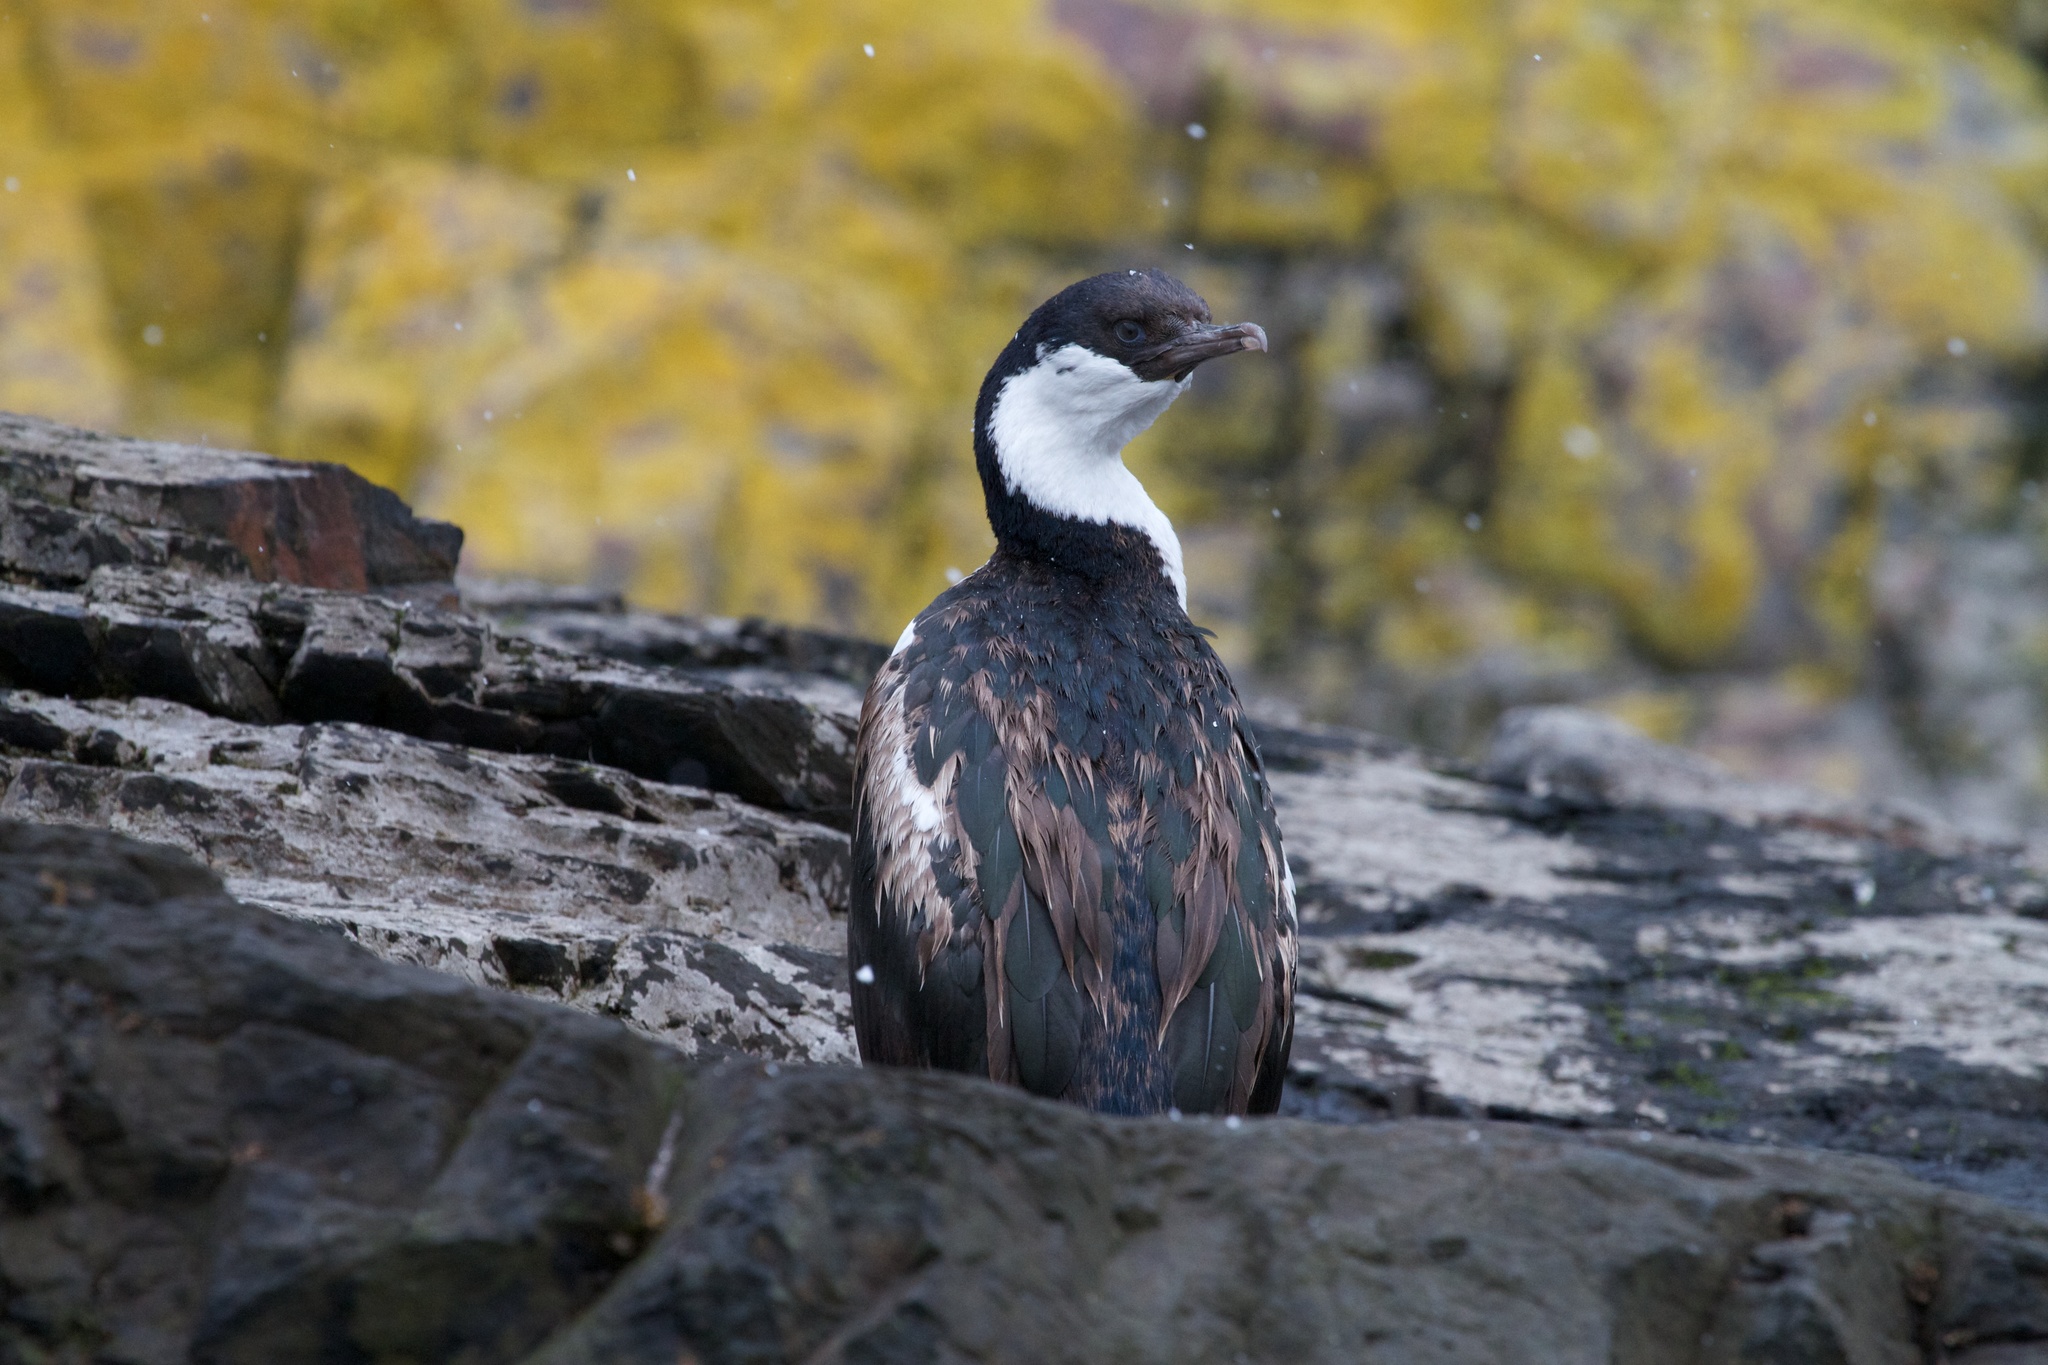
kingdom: Animalia
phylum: Chordata
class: Aves
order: Suliformes
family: Phalacrocoracidae
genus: Leucocarbo
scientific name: Leucocarbo atriceps
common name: Imperial shag
